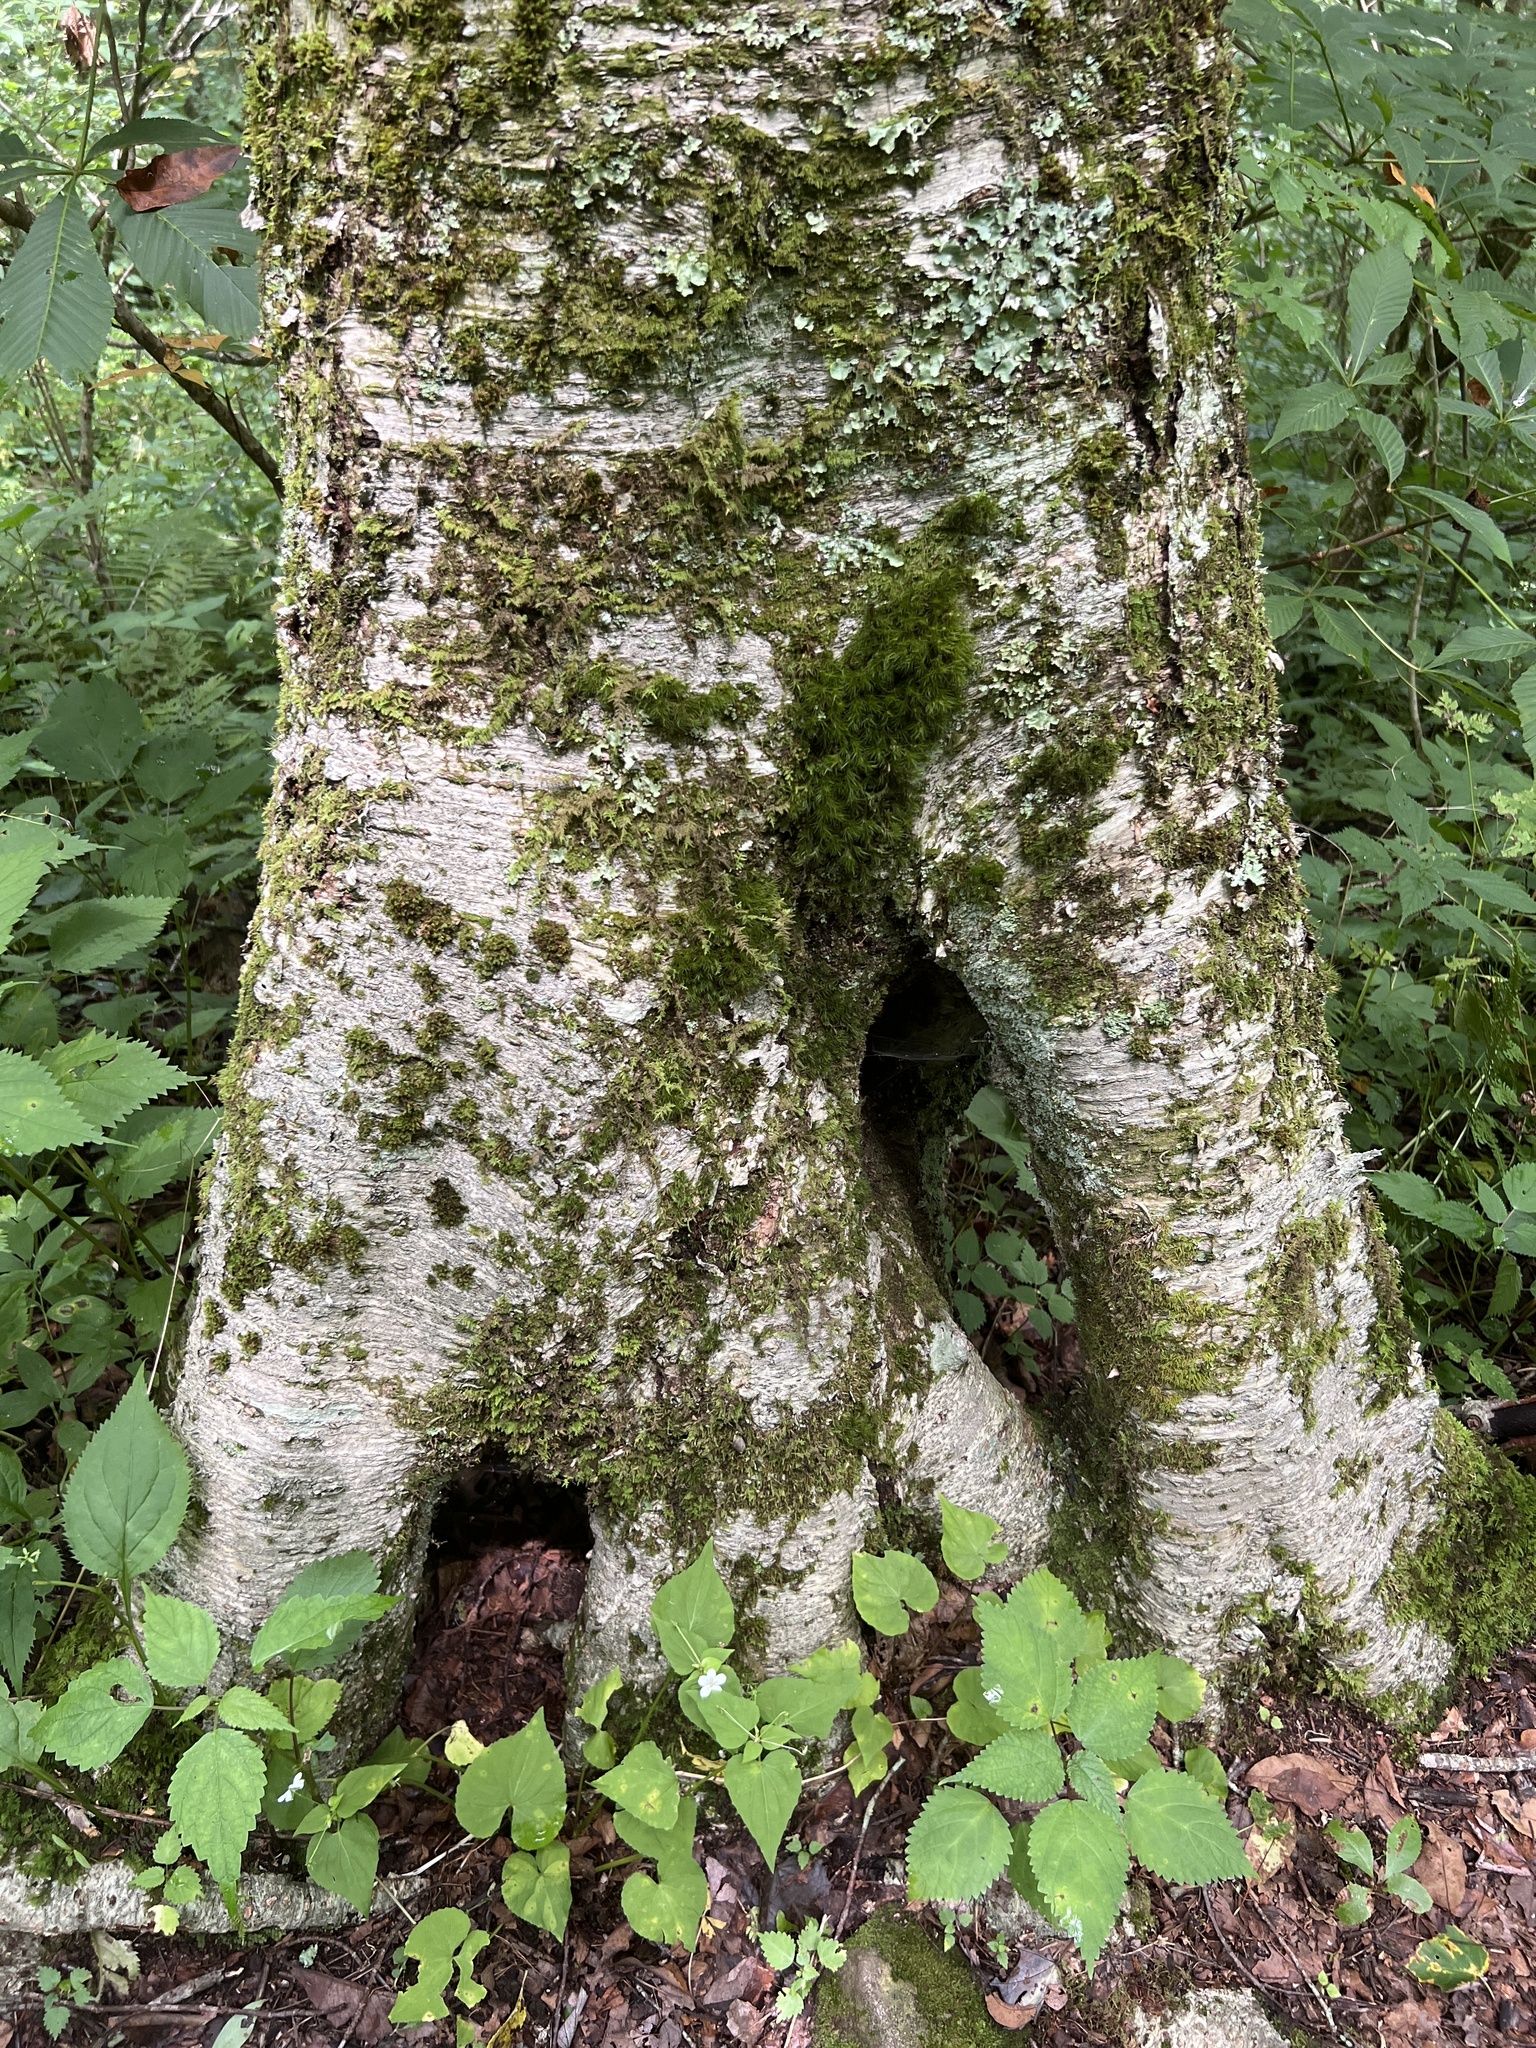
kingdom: Plantae
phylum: Tracheophyta
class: Magnoliopsida
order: Fagales
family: Betulaceae
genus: Betula
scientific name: Betula alleghaniensis
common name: Yellow birch
